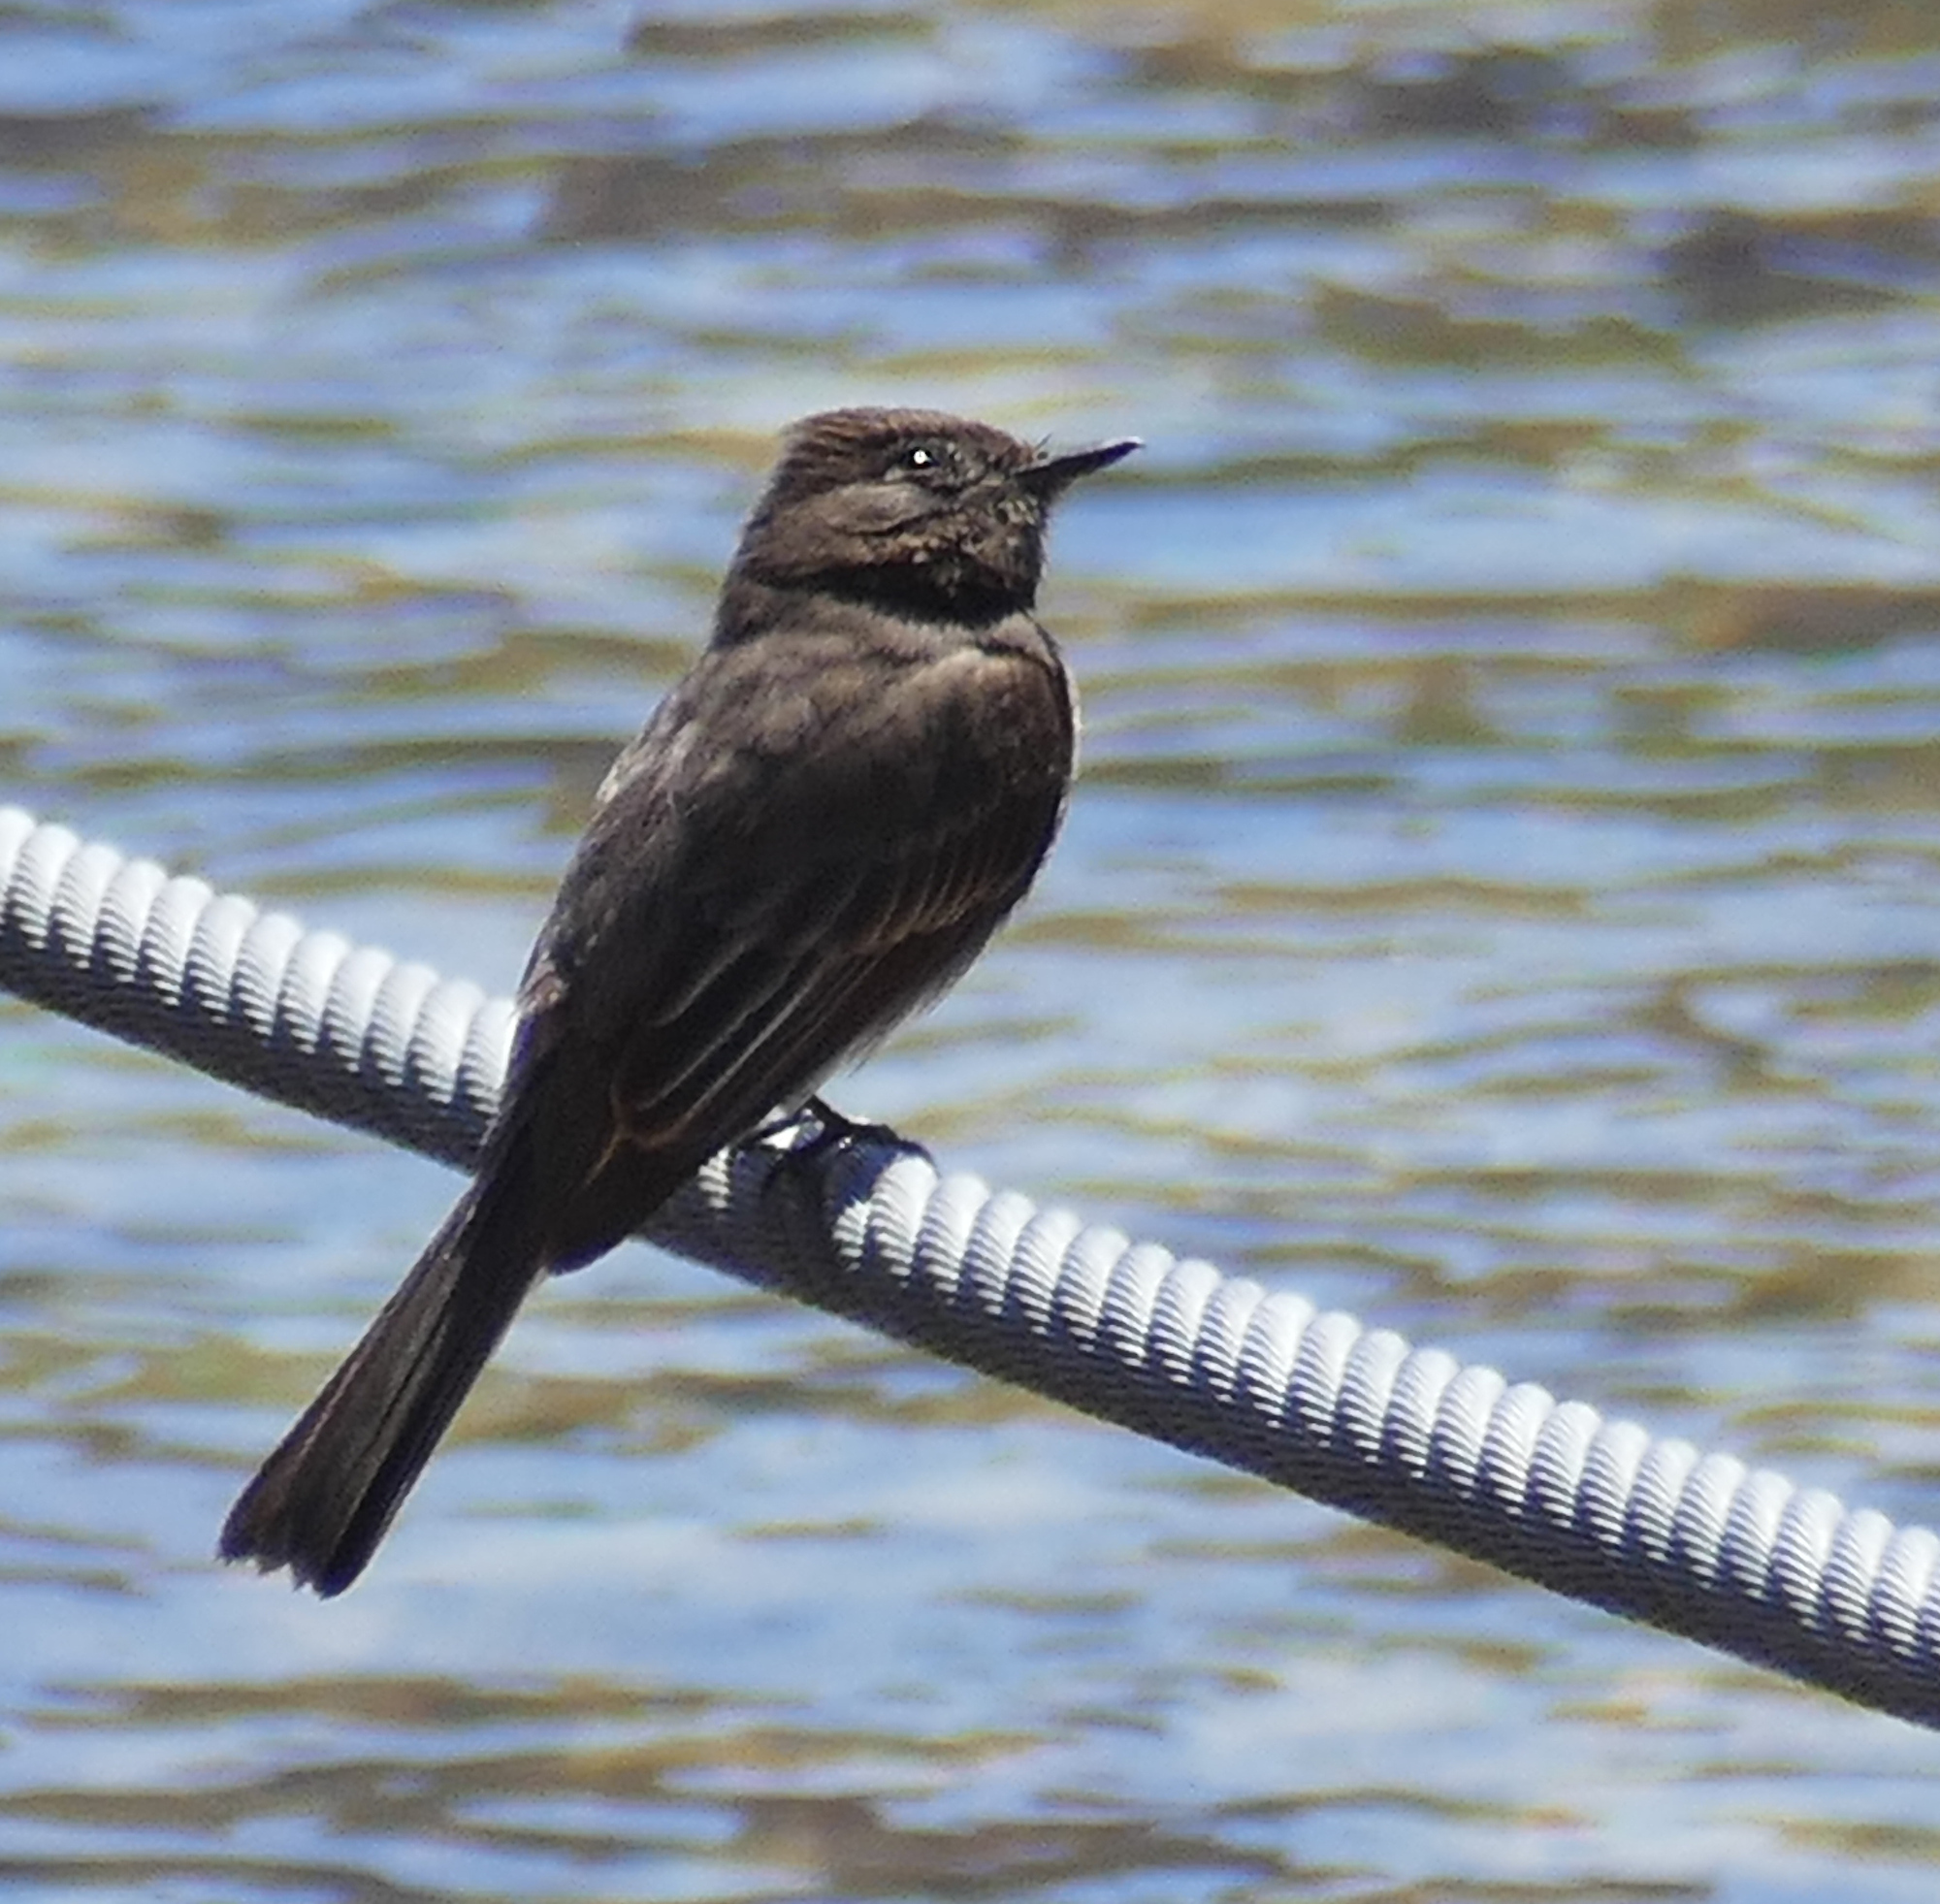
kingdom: Animalia
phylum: Chordata
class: Aves
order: Passeriformes
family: Tyrannidae
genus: Sayornis
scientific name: Sayornis nigricans
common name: Black phoebe
